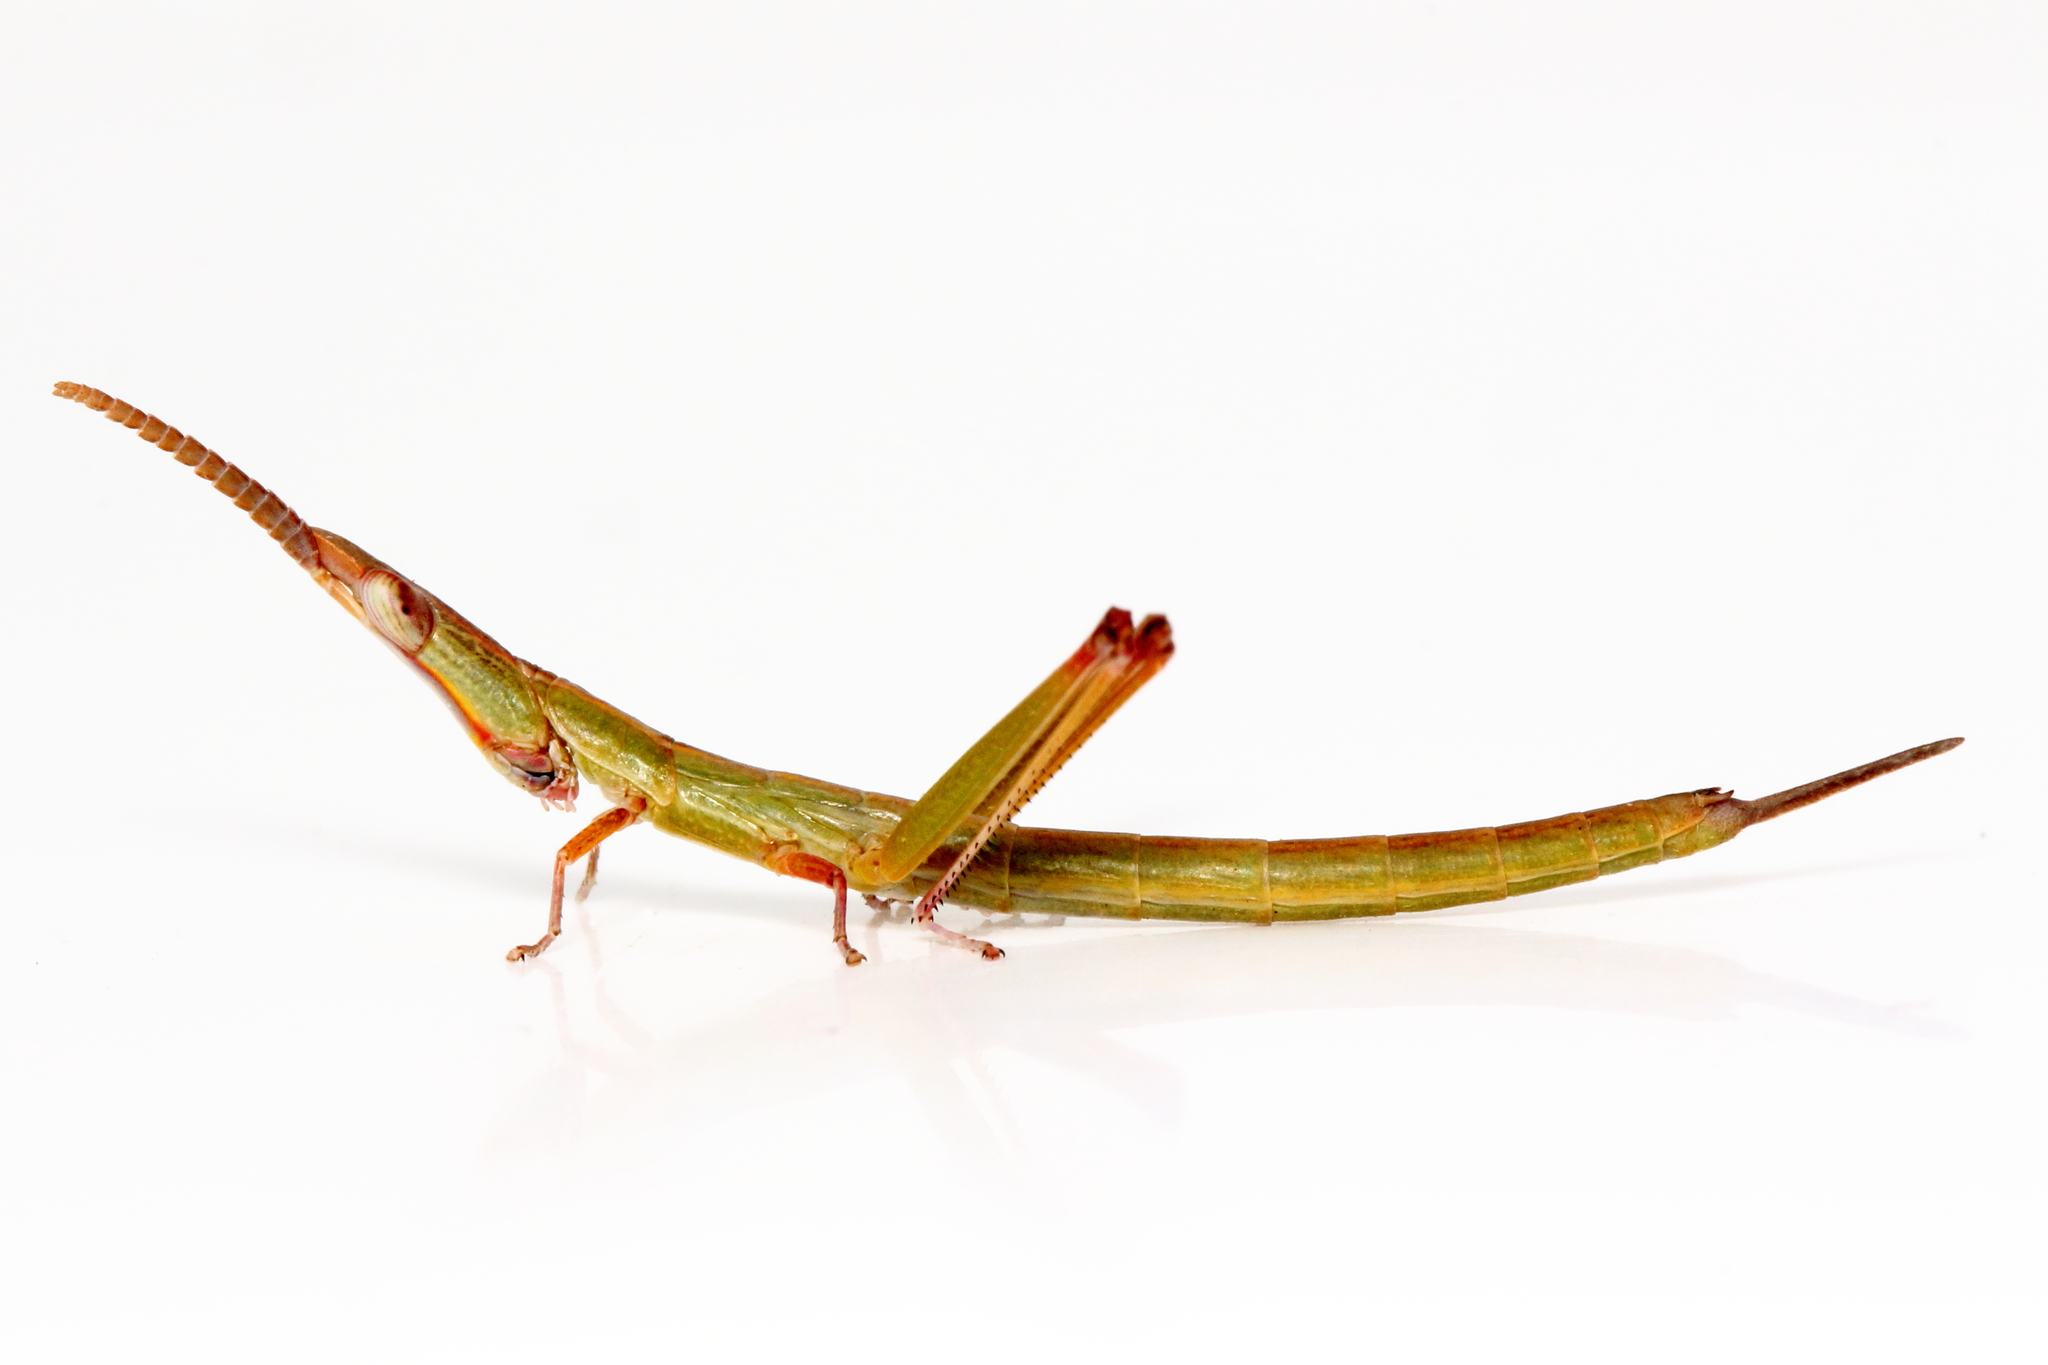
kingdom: Animalia
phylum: Arthropoda
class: Insecta
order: Orthoptera
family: Morabidae
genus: Warramaba
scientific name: Warramaba whitei
